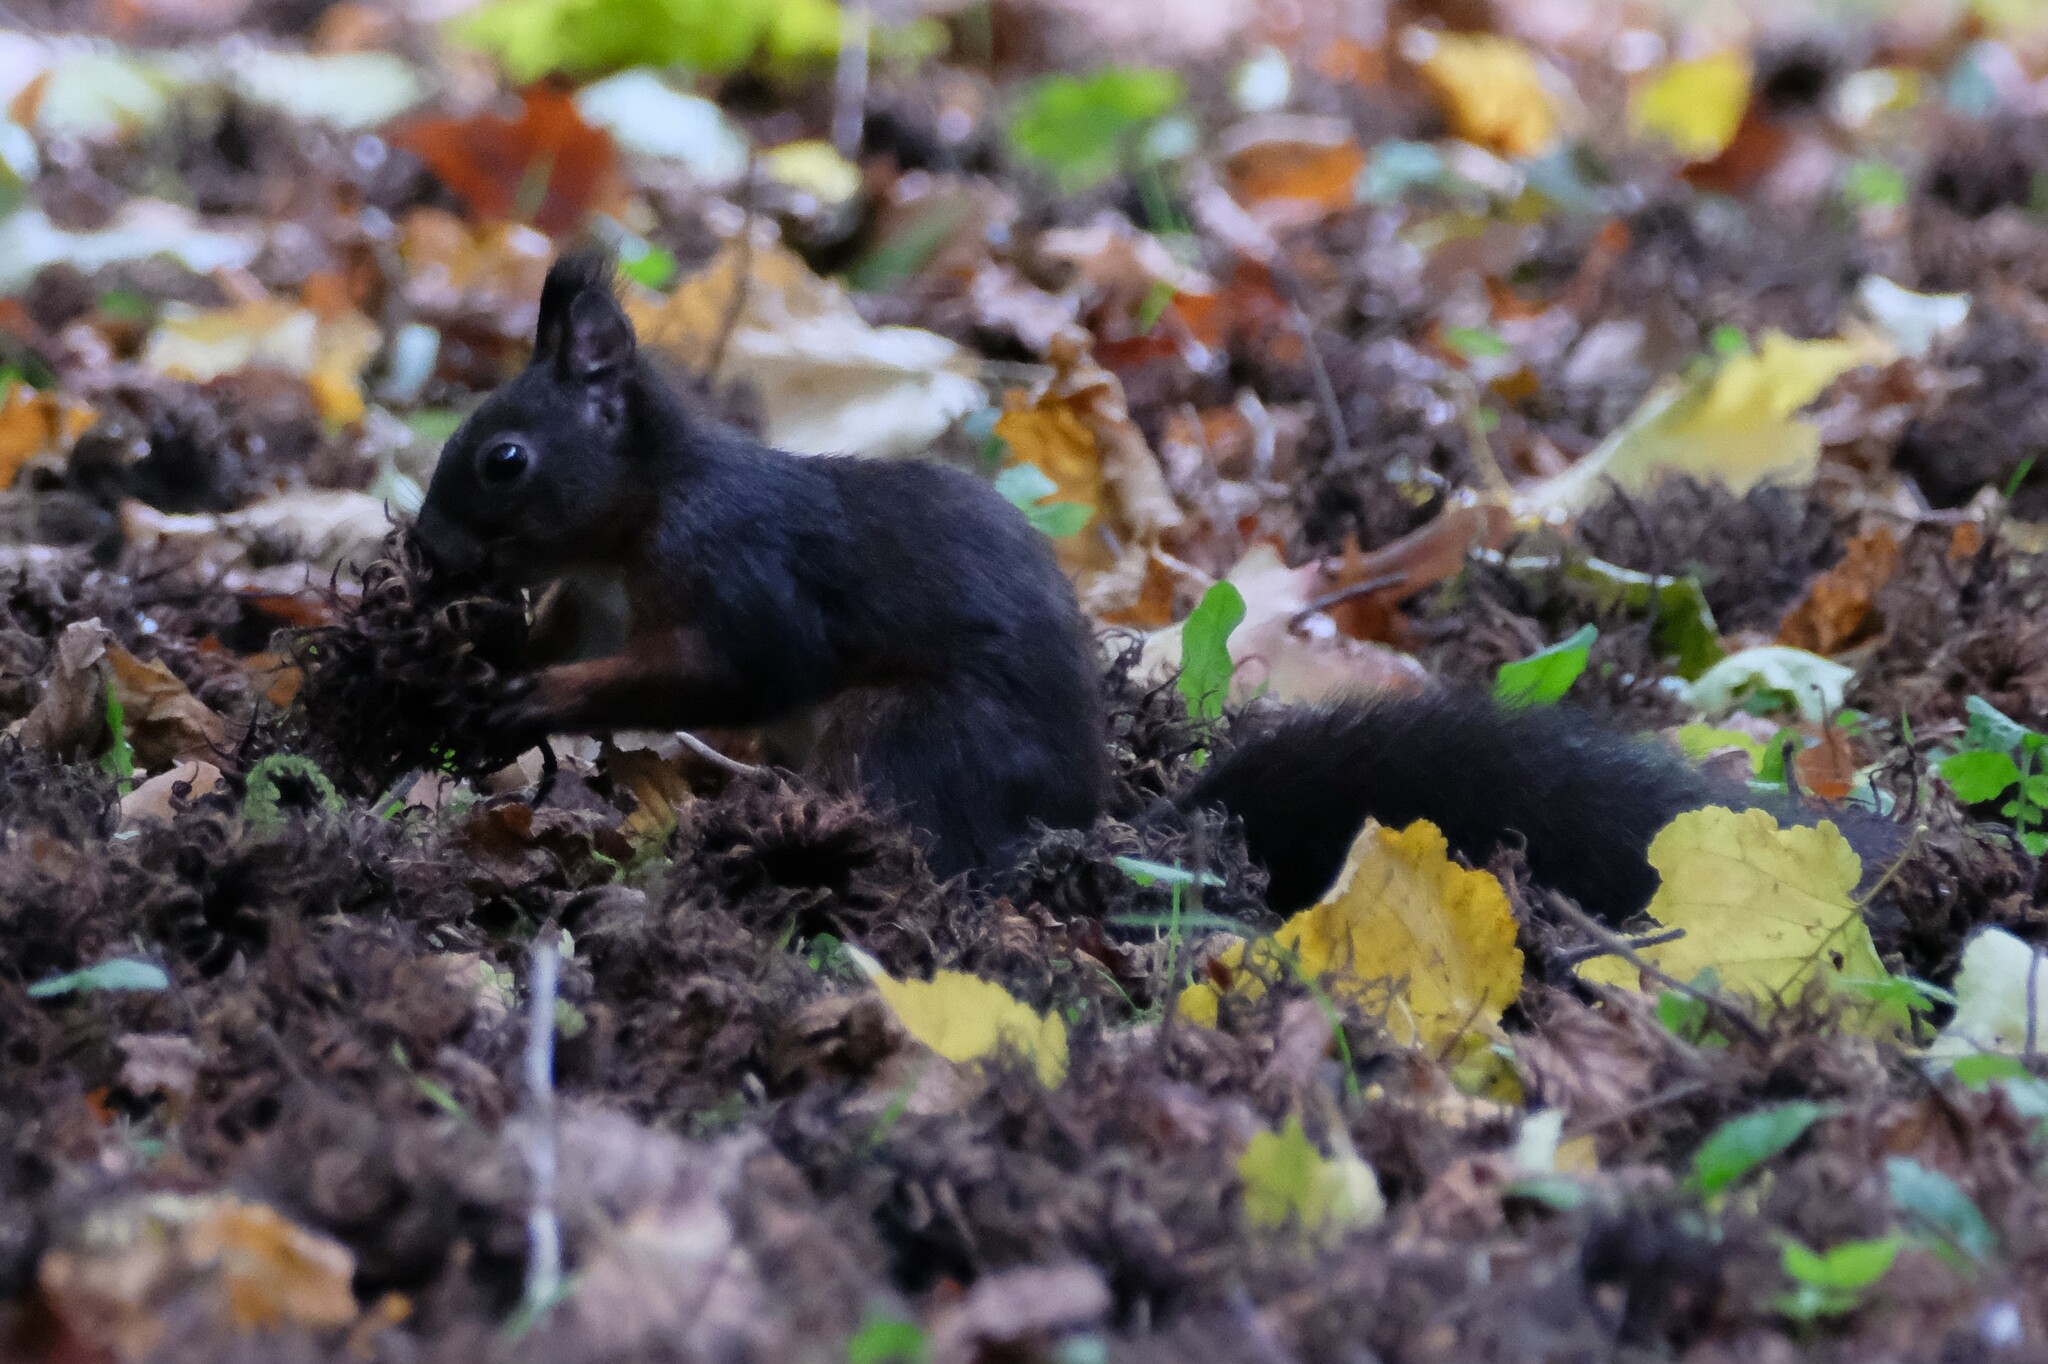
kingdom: Animalia
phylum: Chordata
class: Mammalia
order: Rodentia
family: Sciuridae
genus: Sciurus
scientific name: Sciurus vulgaris
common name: Eurasian red squirrel
